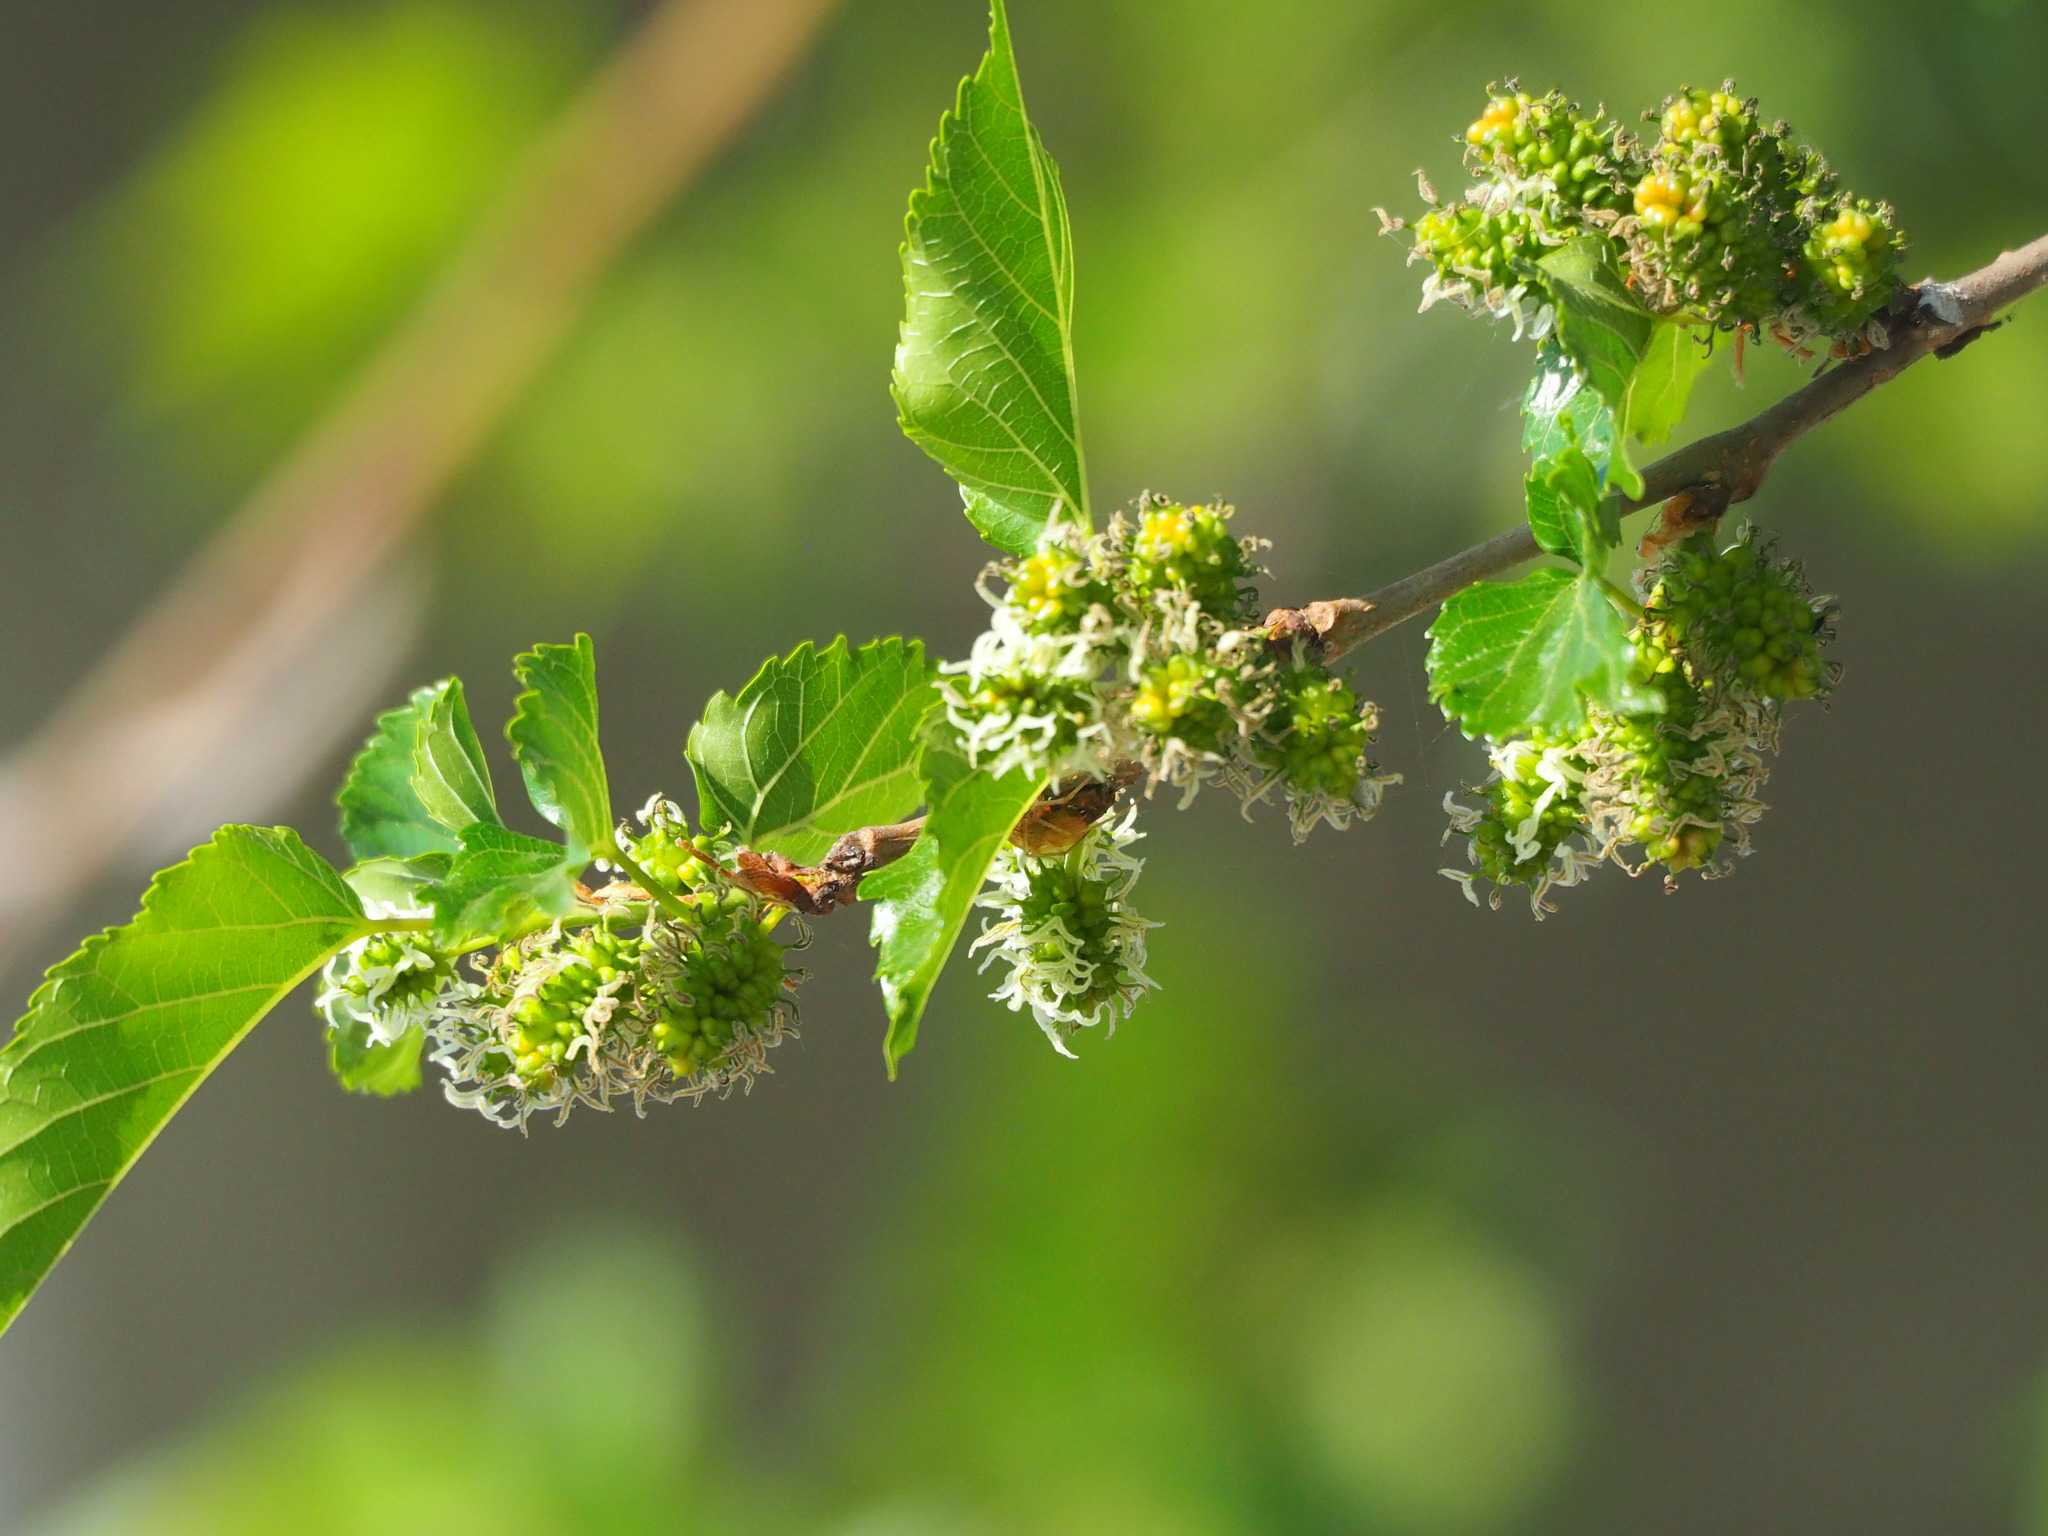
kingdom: Plantae
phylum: Tracheophyta
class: Magnoliopsida
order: Rosales
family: Moraceae
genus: Morus
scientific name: Morus indica
